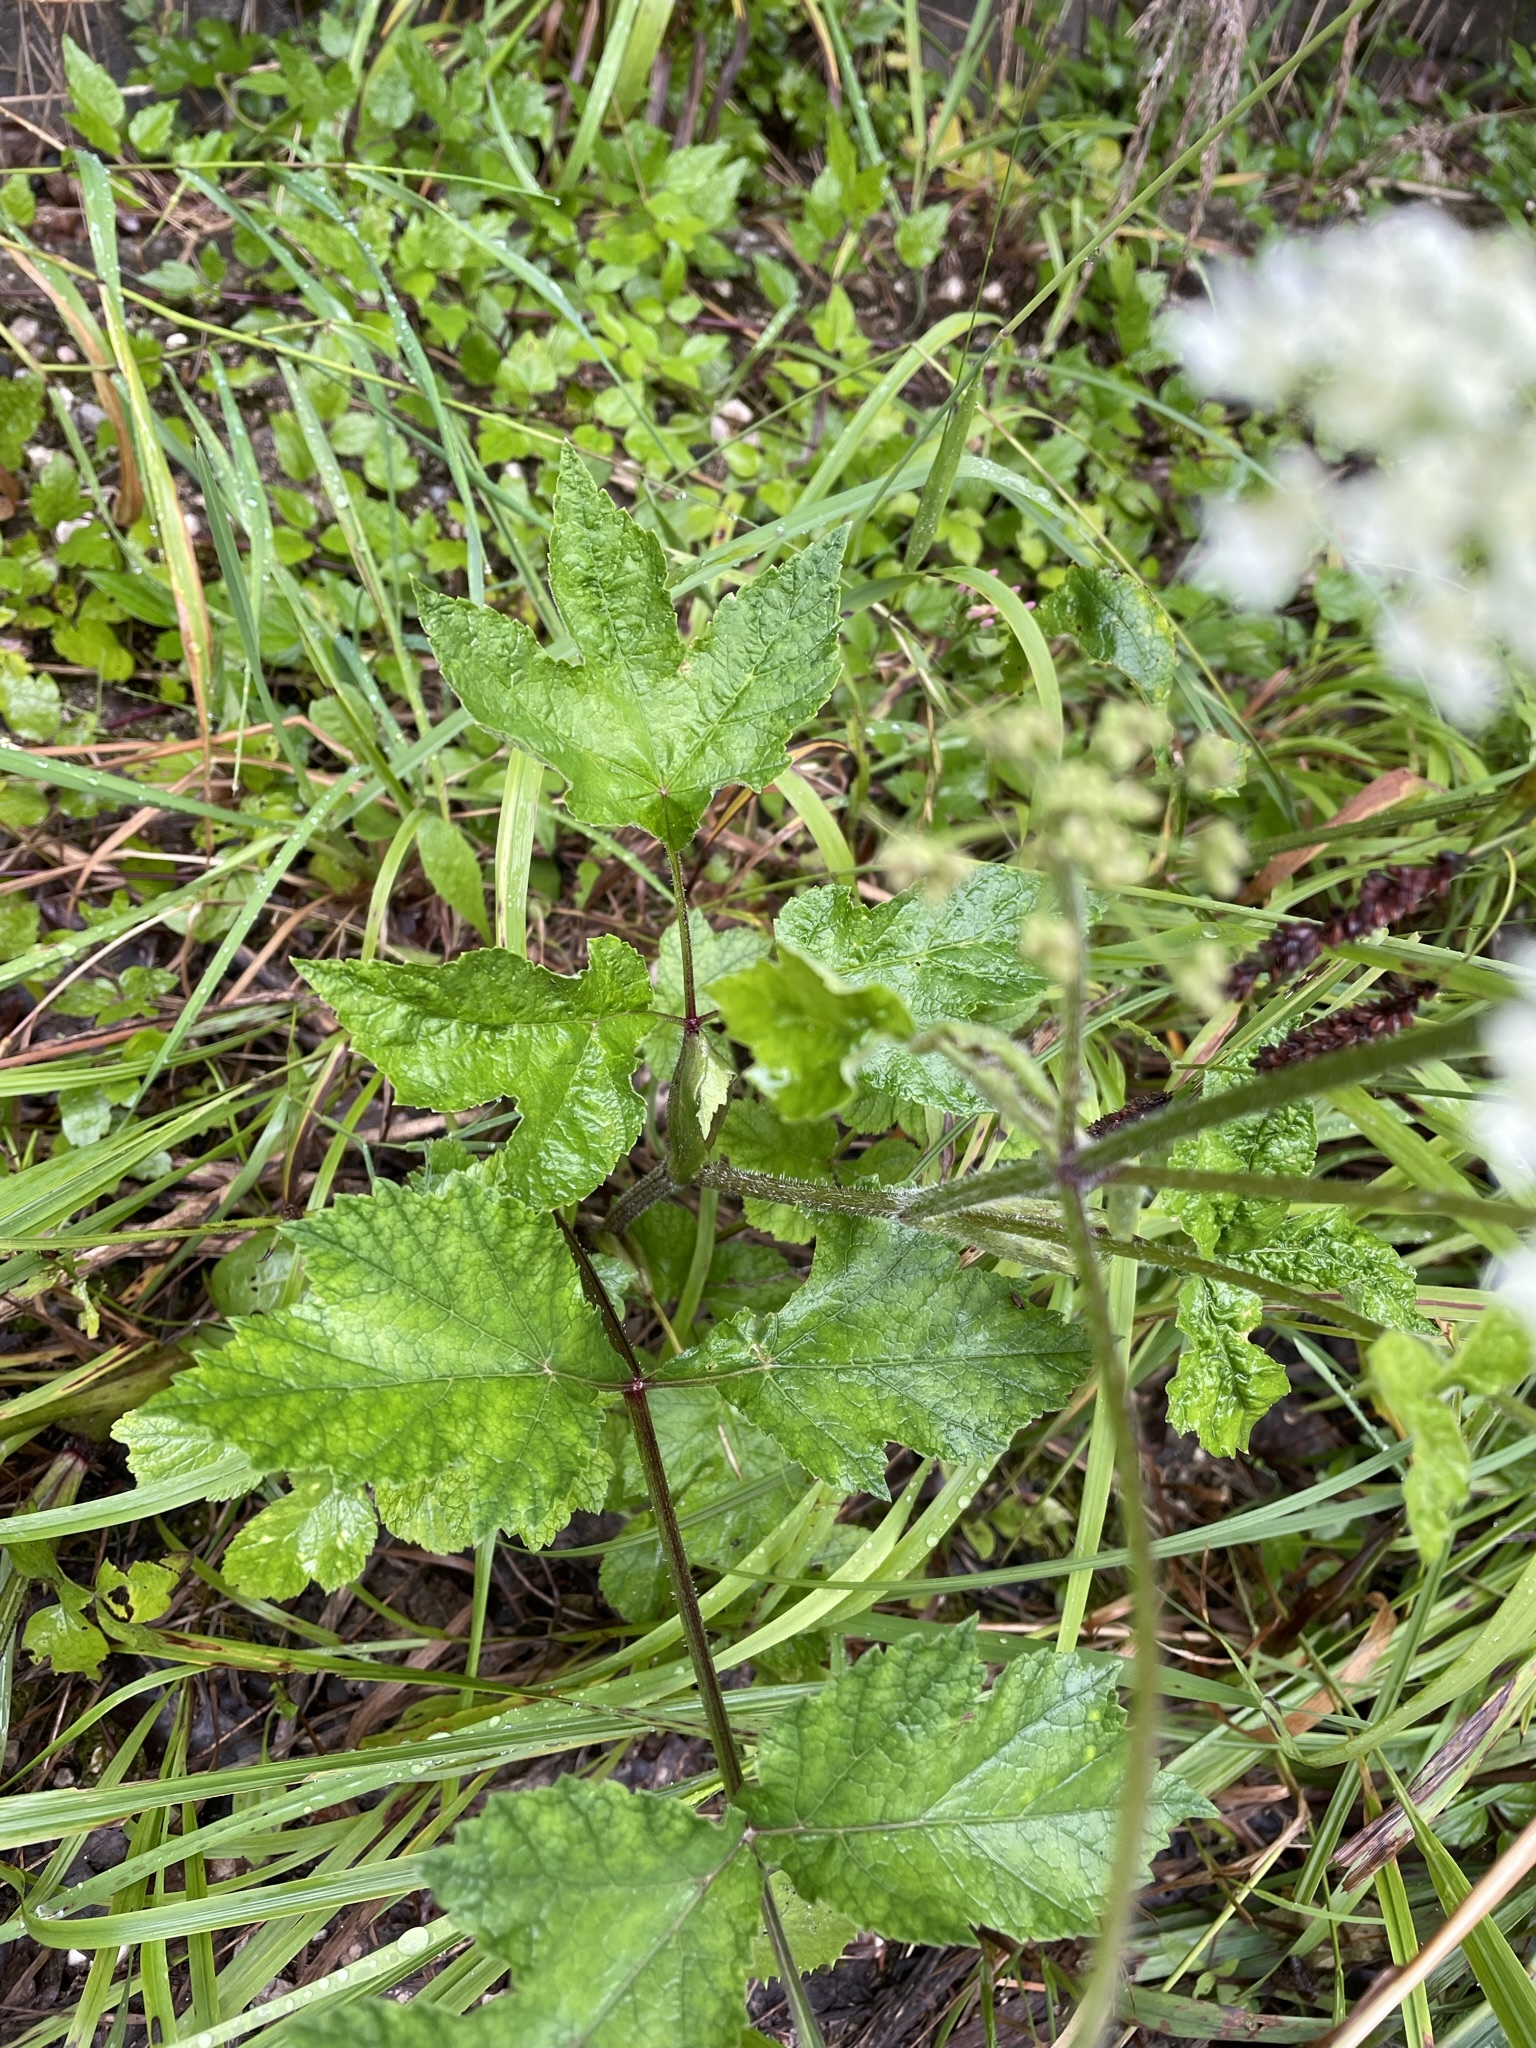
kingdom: Plantae
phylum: Tracheophyta
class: Magnoliopsida
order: Apiales
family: Apiaceae
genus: Heracleum
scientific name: Heracleum sphondylium
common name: Hogweed
